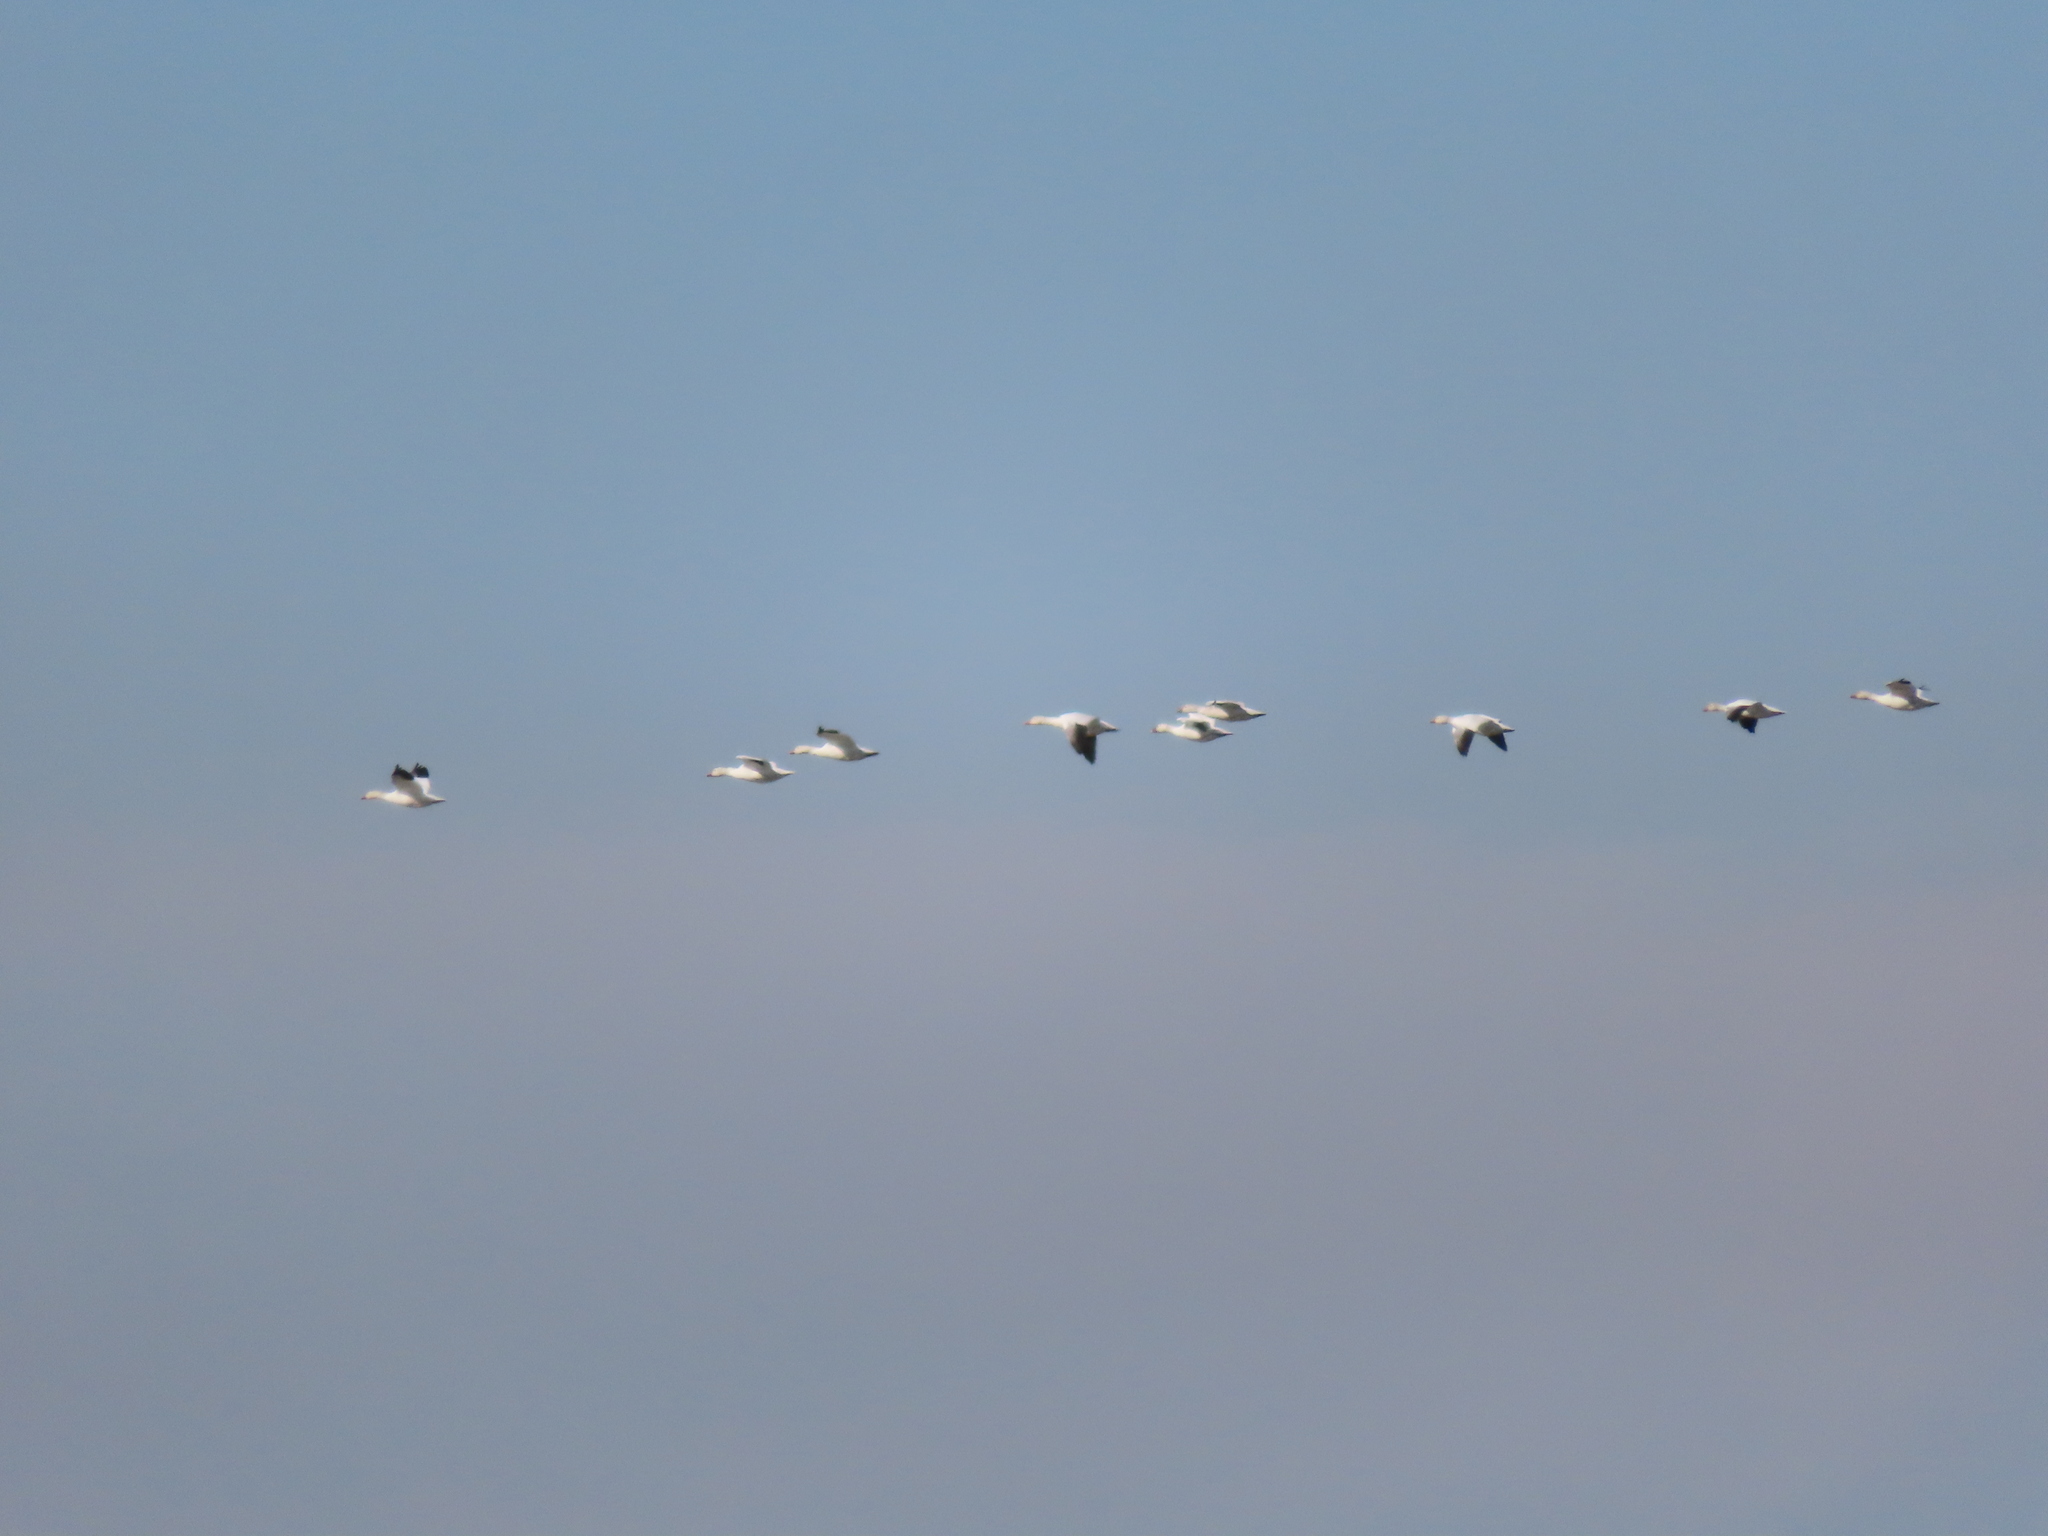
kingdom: Animalia
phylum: Chordata
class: Aves
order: Anseriformes
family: Anatidae
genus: Anser
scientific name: Anser caerulescens
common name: Snow goose
